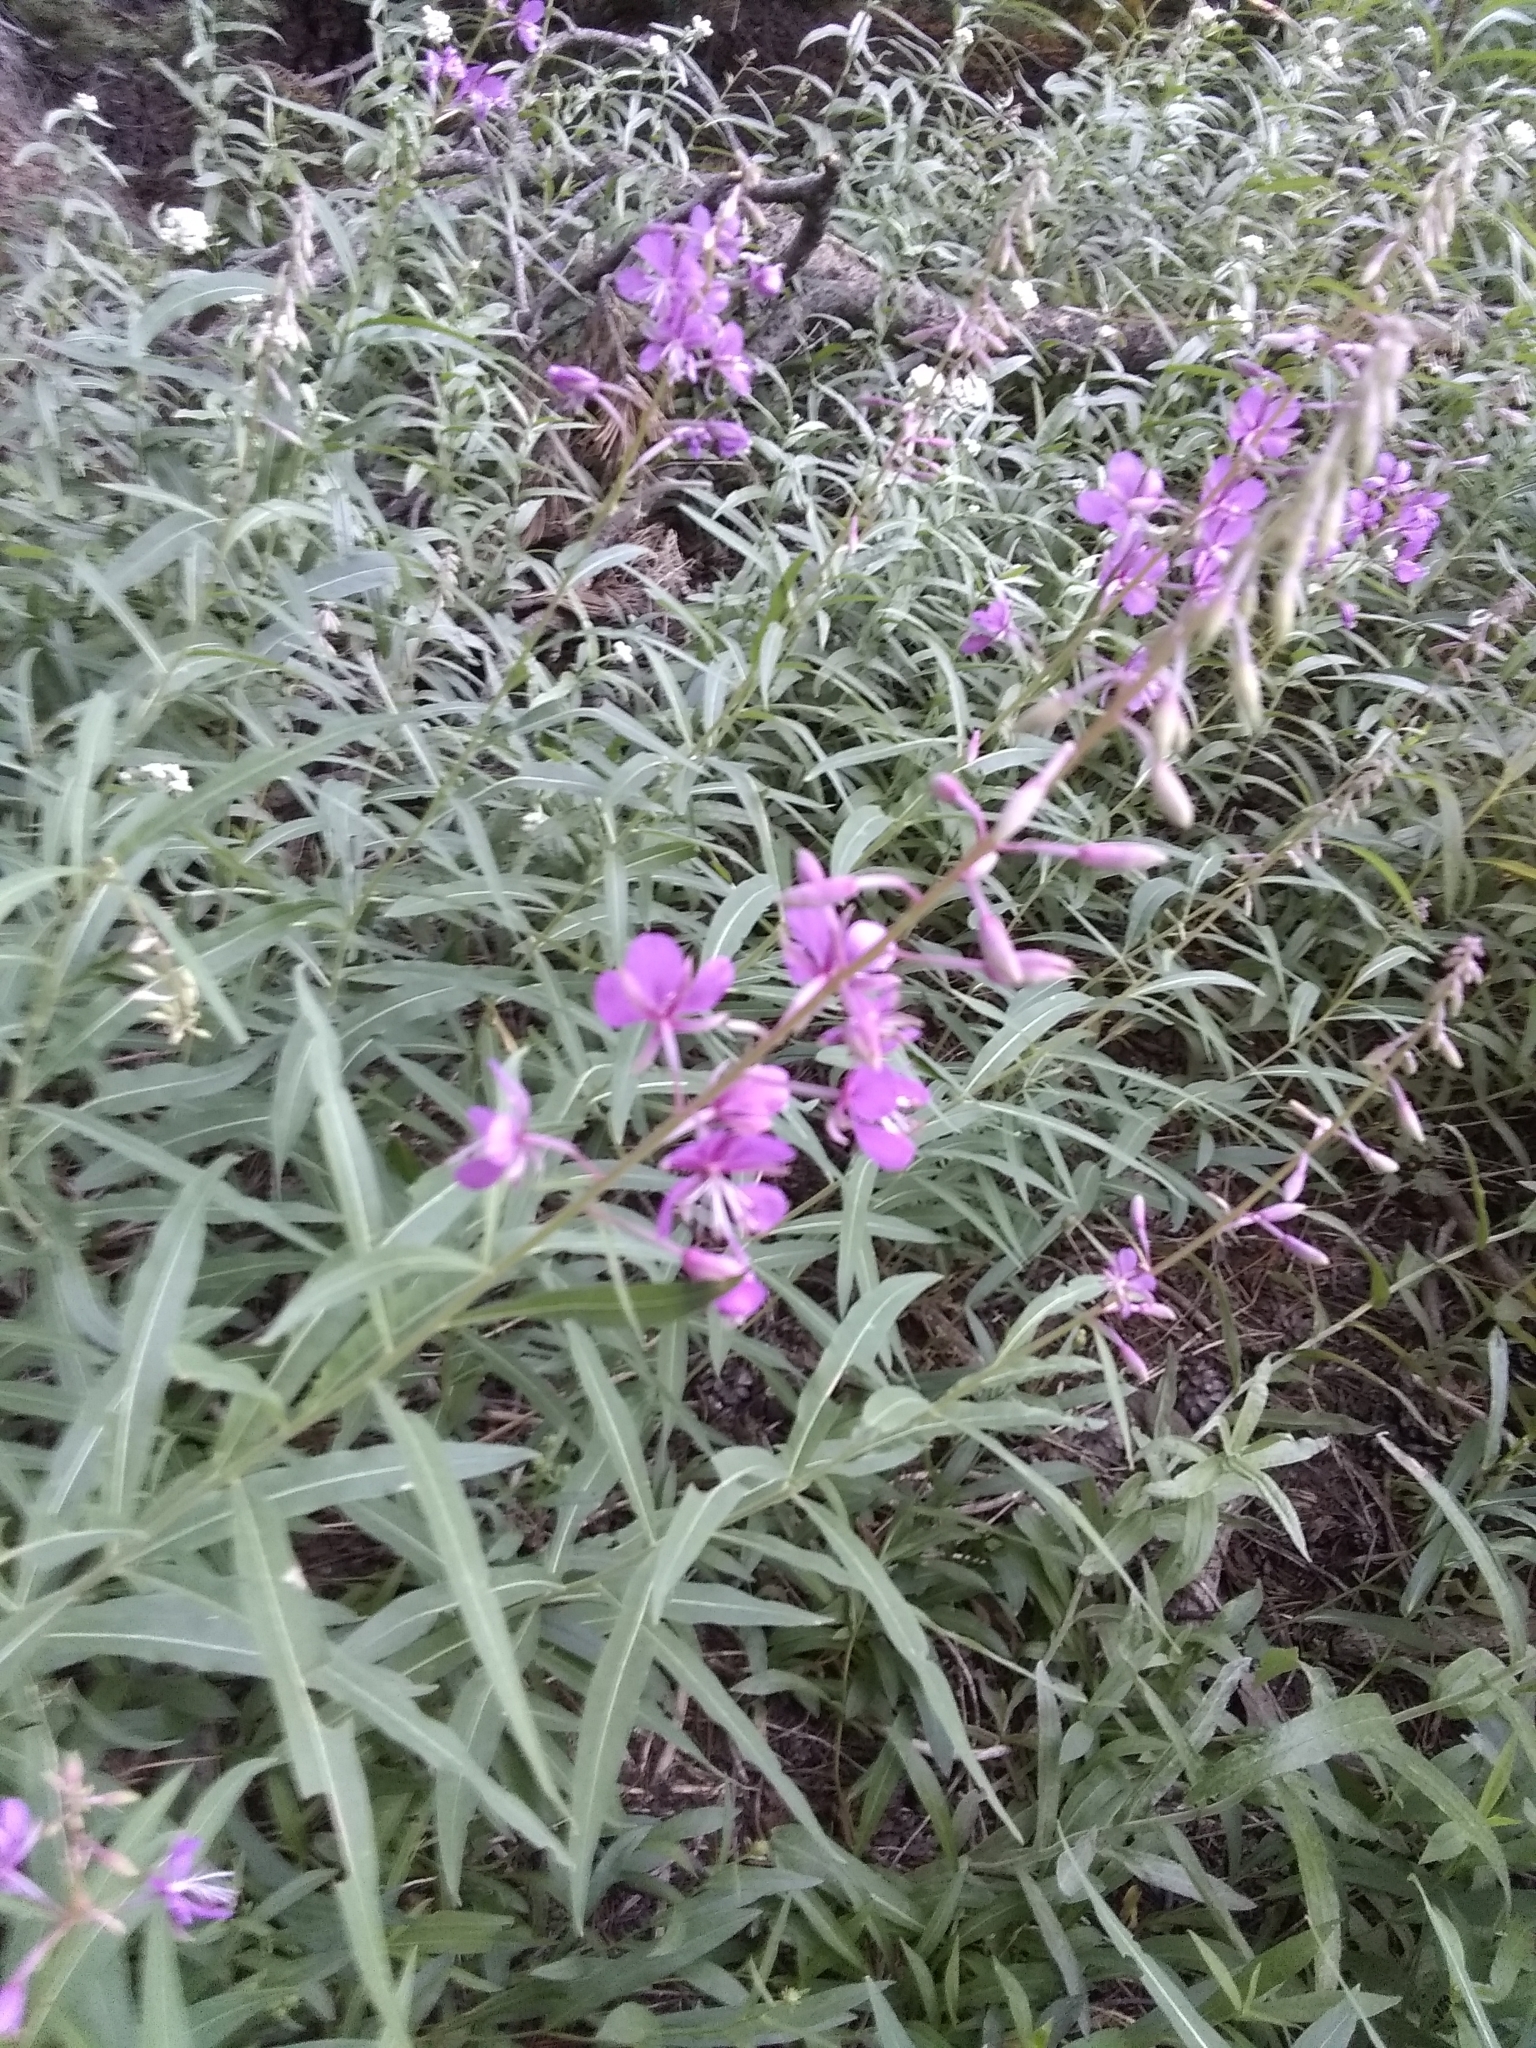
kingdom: Plantae
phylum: Tracheophyta
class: Magnoliopsida
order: Myrtales
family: Onagraceae
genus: Chamaenerion
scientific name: Chamaenerion angustifolium
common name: Fireweed
